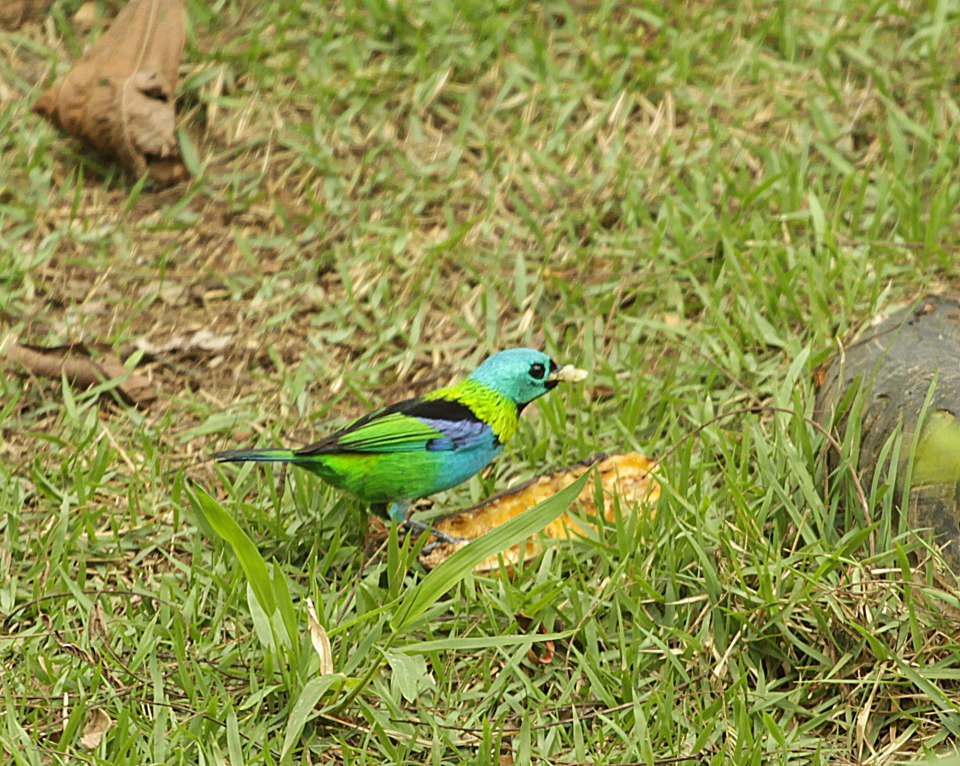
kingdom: Animalia
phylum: Chordata
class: Aves
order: Passeriformes
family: Thraupidae
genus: Tangara
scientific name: Tangara seledon
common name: Green-headed tanager
